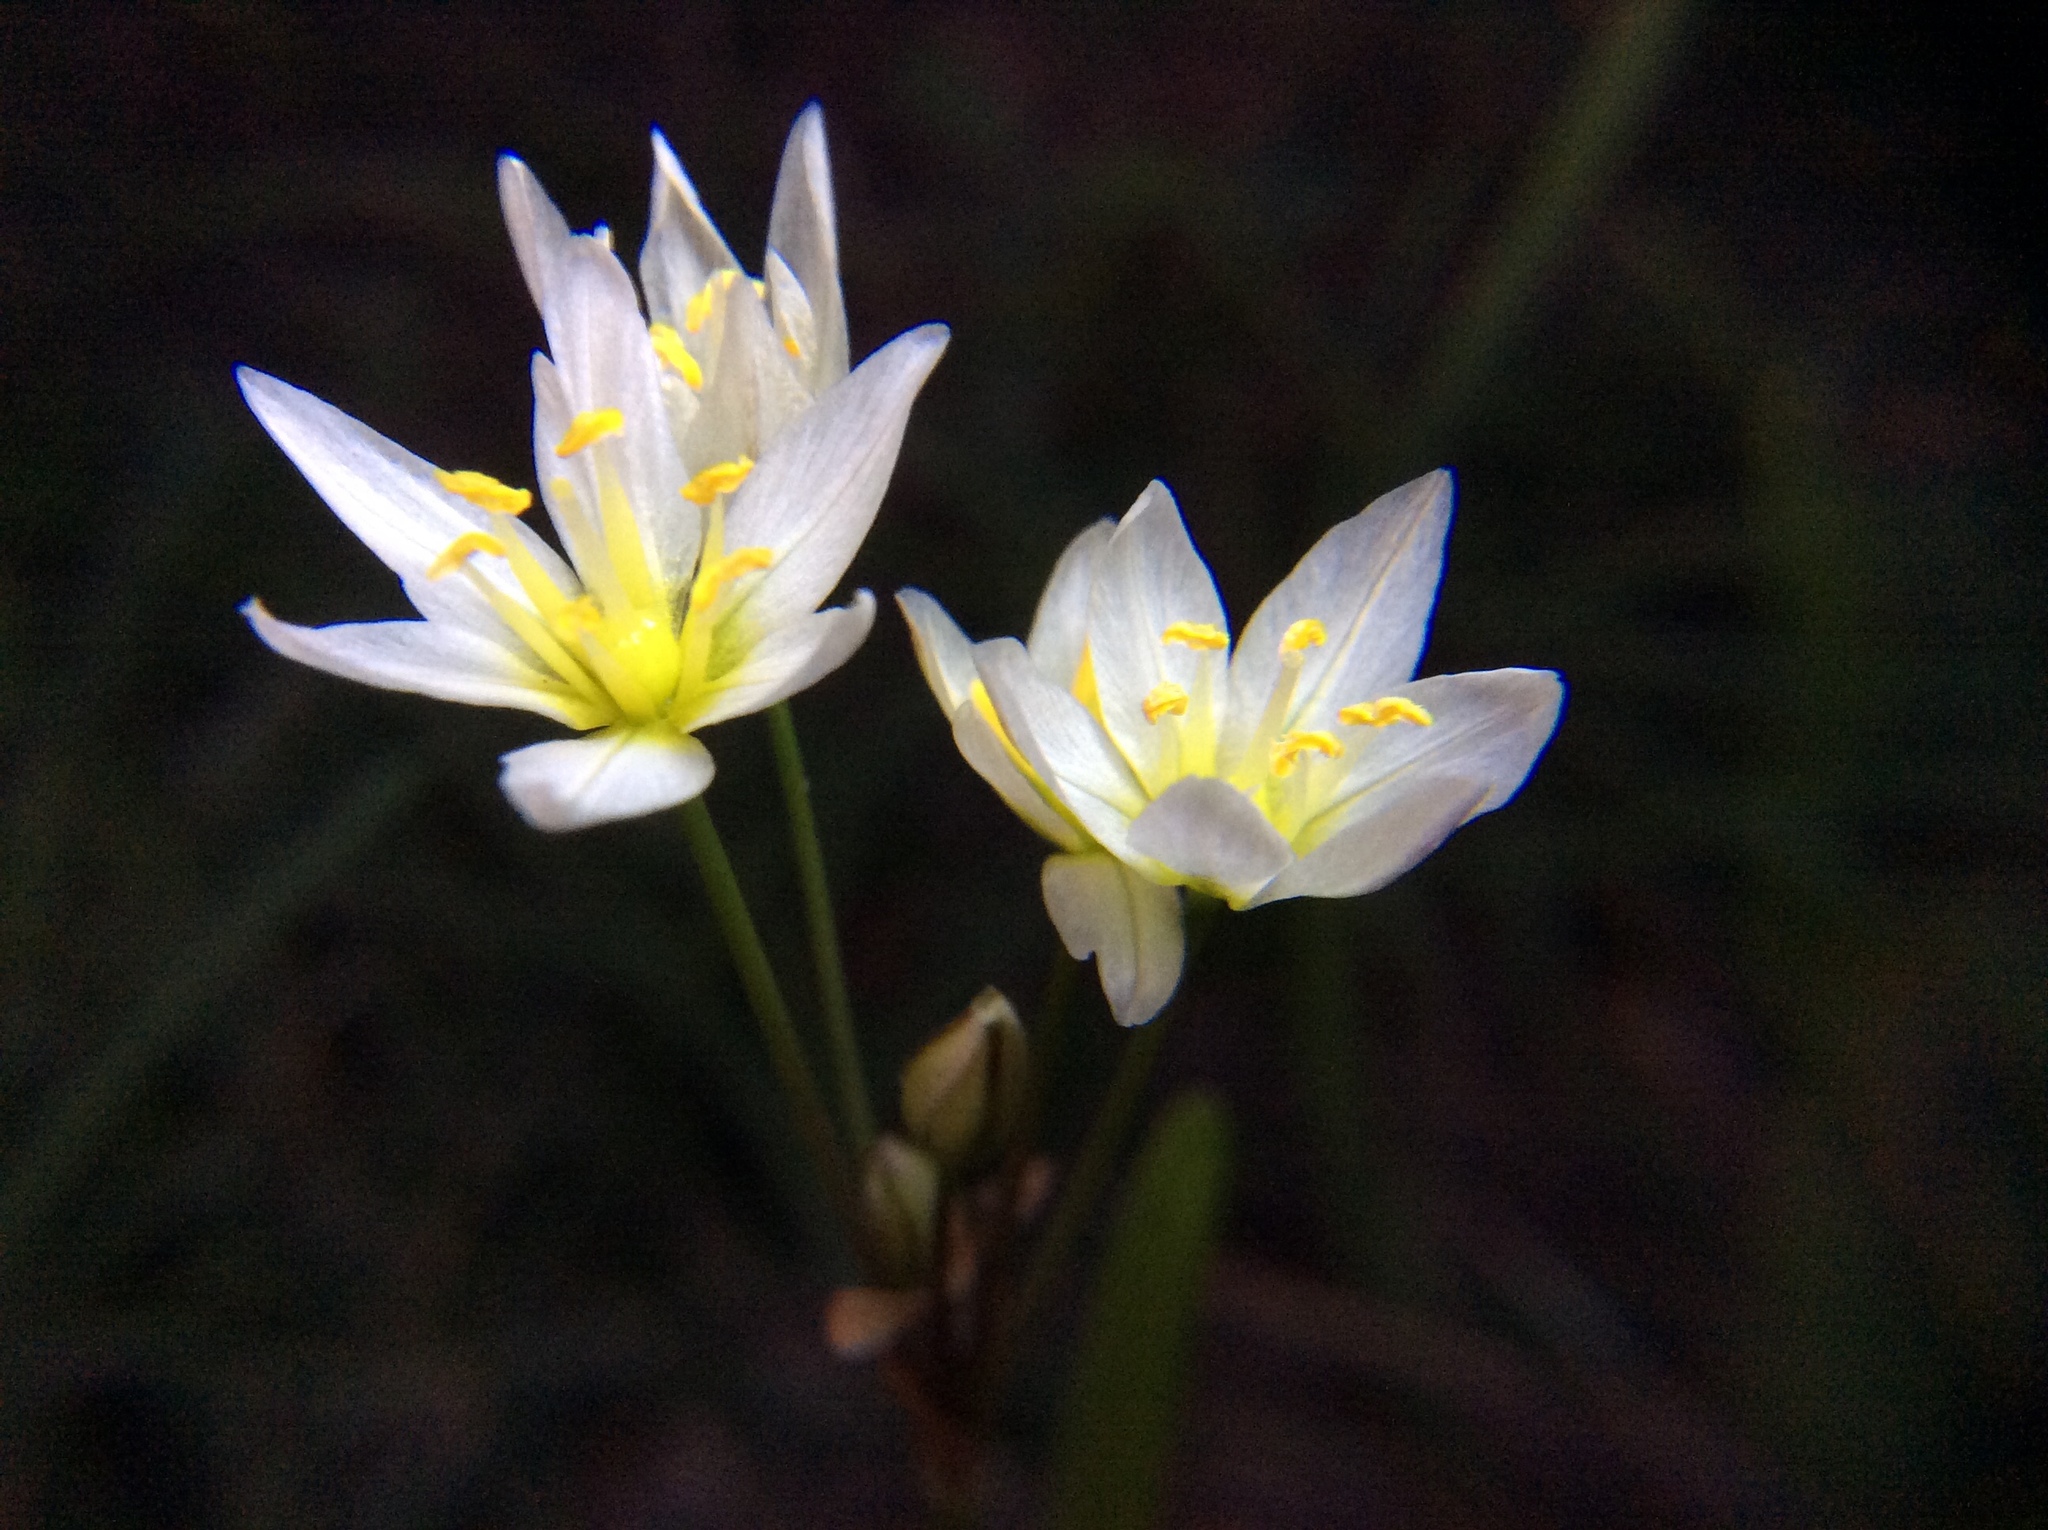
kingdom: Plantae
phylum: Tracheophyta
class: Liliopsida
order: Asparagales
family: Amaryllidaceae
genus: Nothoscordum
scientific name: Nothoscordum bivalve
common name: Crow-poison
